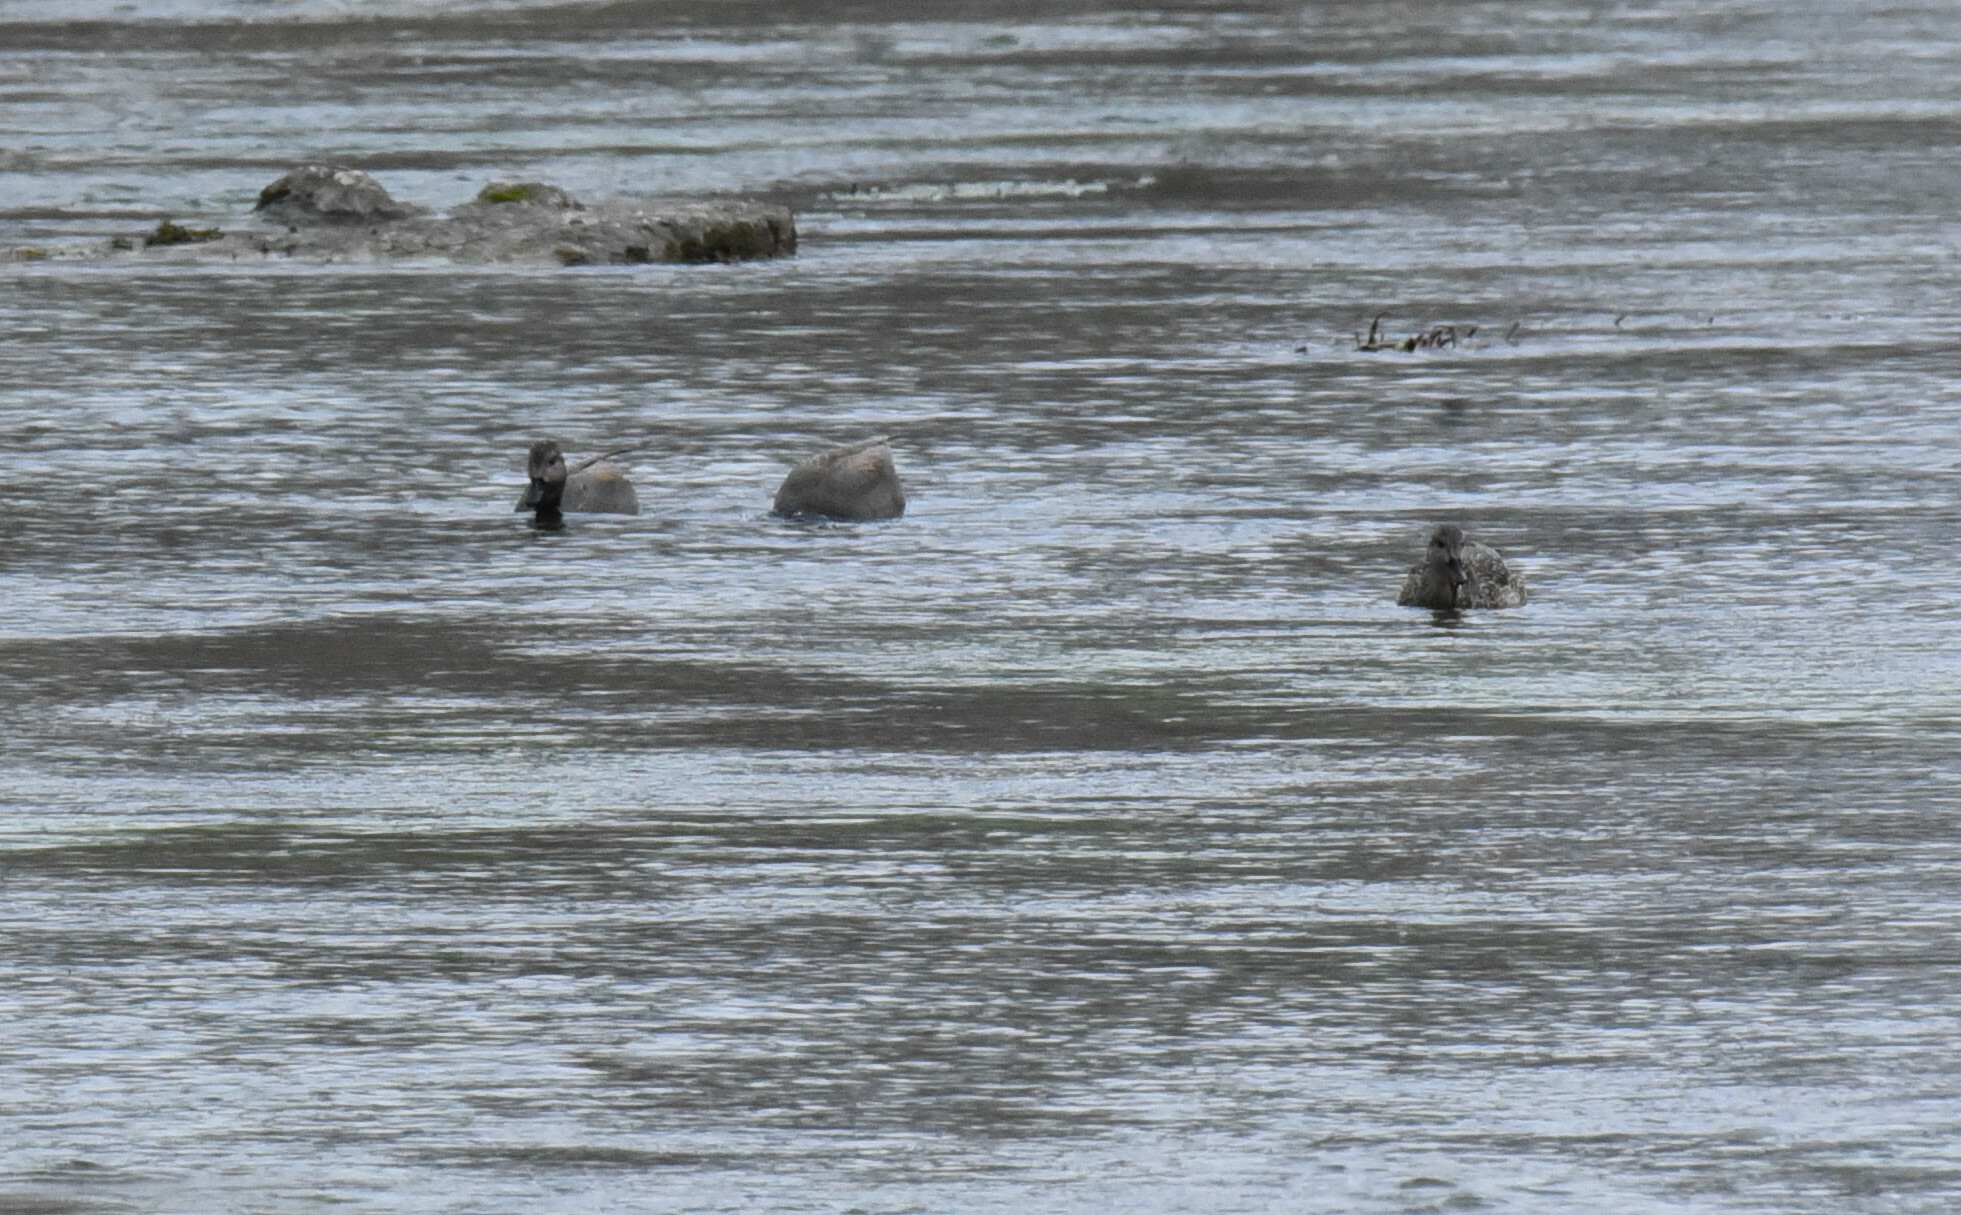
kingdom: Animalia
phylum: Chordata
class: Aves
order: Anseriformes
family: Anatidae
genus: Mareca
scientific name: Mareca strepera
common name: Gadwall
